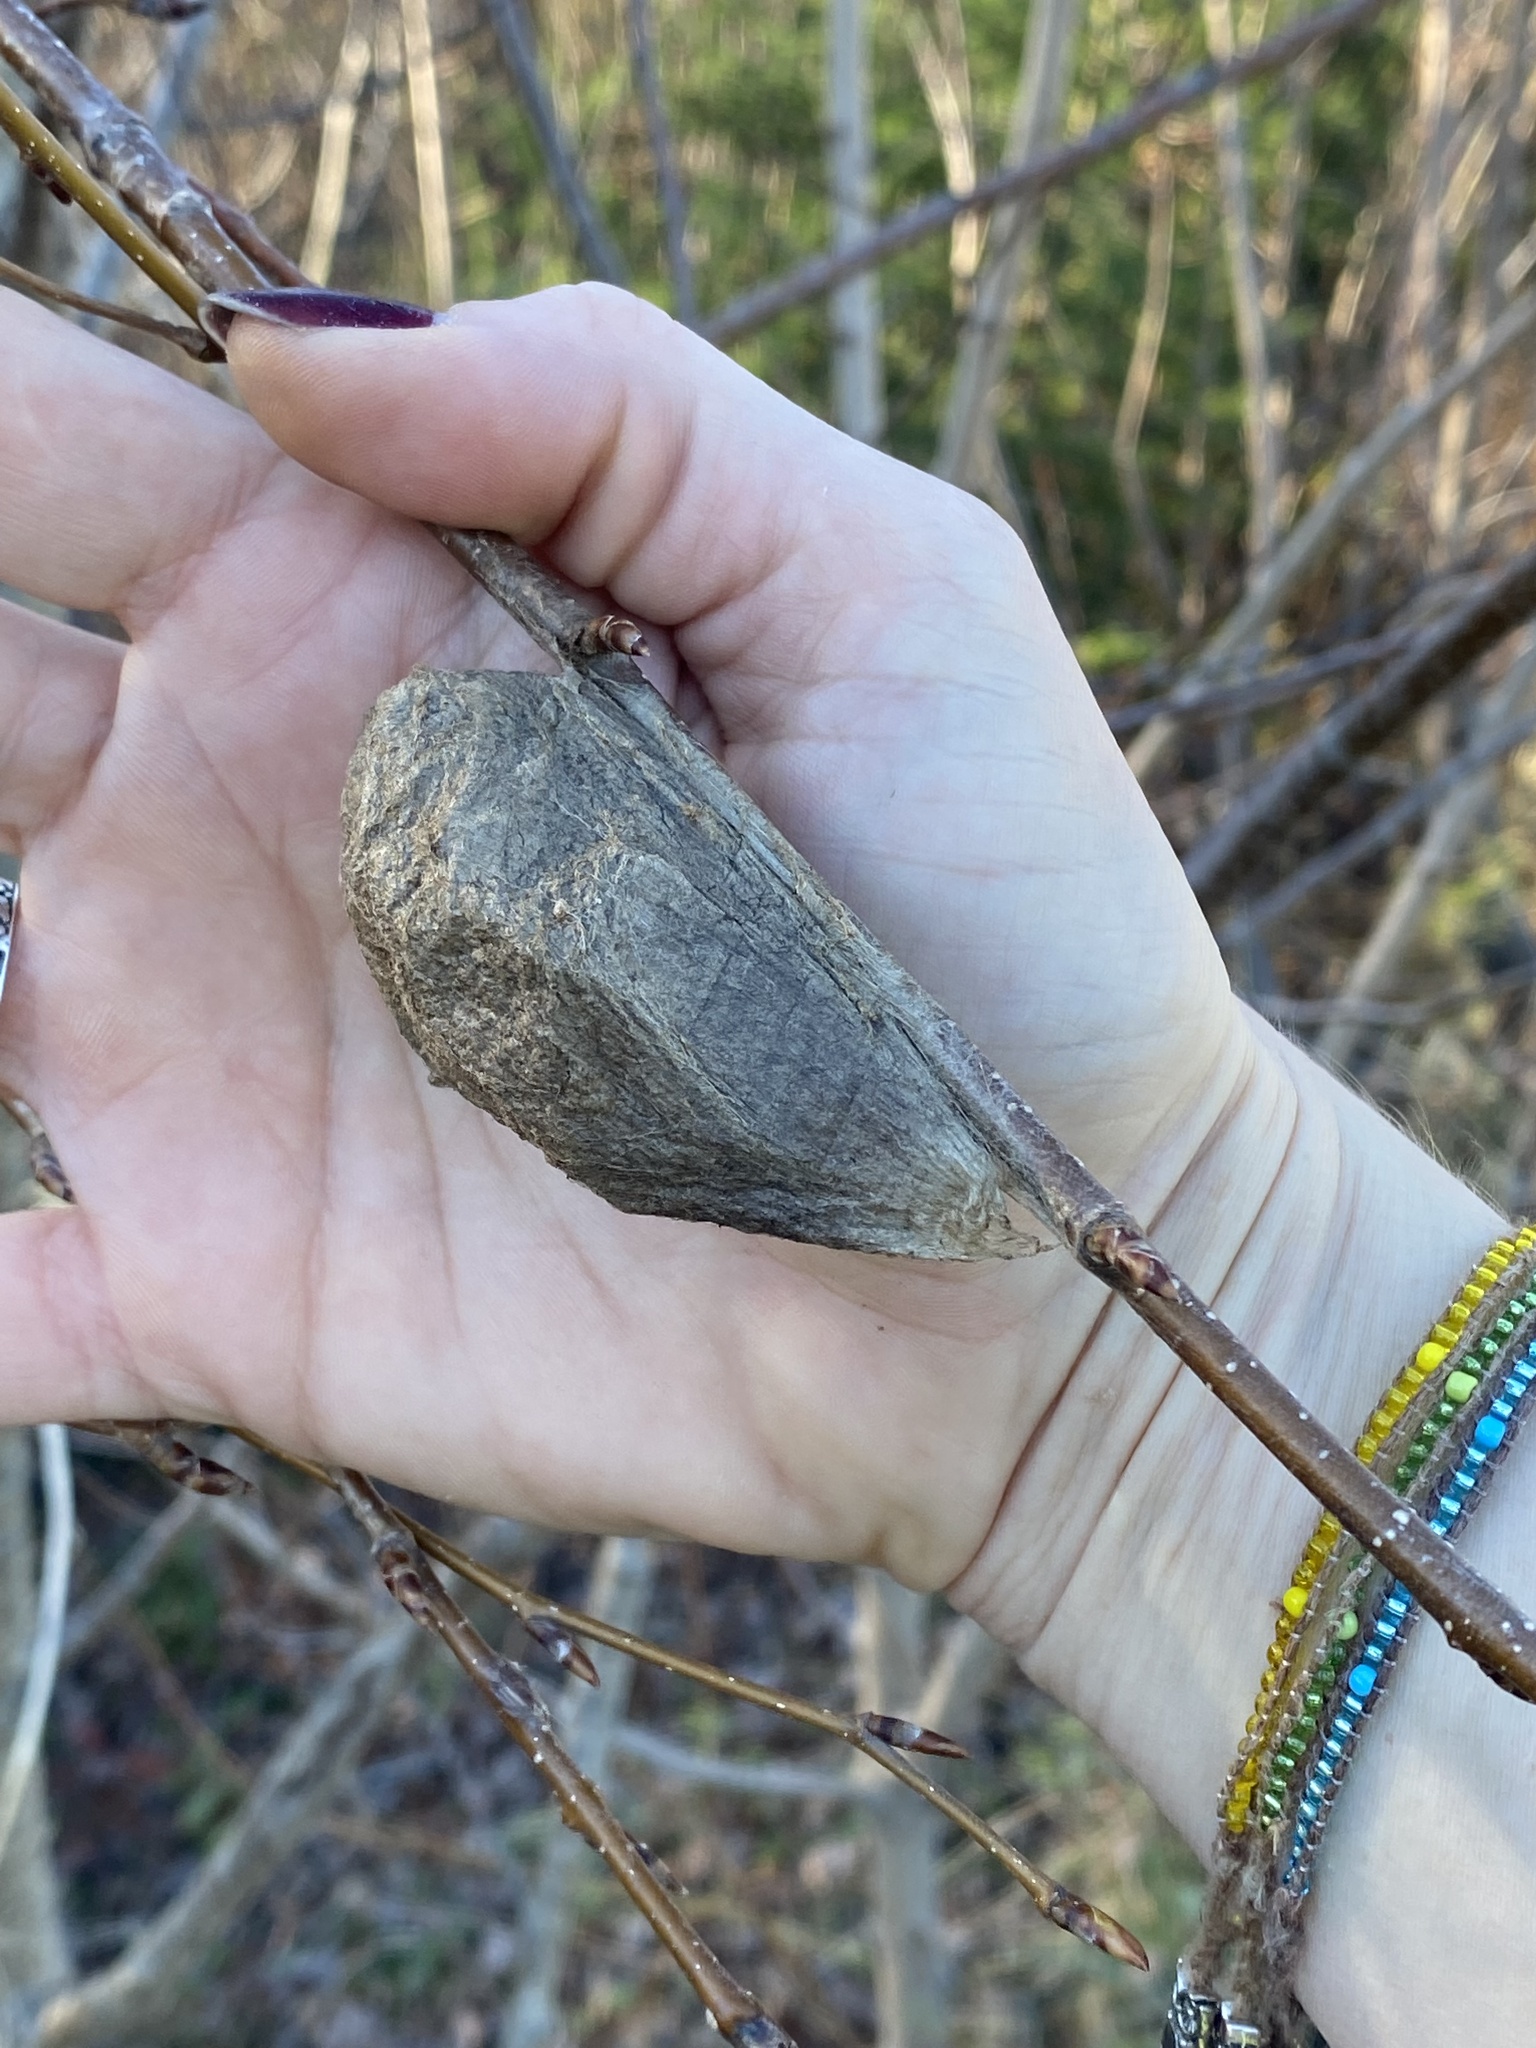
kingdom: Animalia
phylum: Arthropoda
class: Insecta
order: Lepidoptera
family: Saturniidae
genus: Hyalophora
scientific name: Hyalophora cecropia
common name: Cecropia silkmoth
